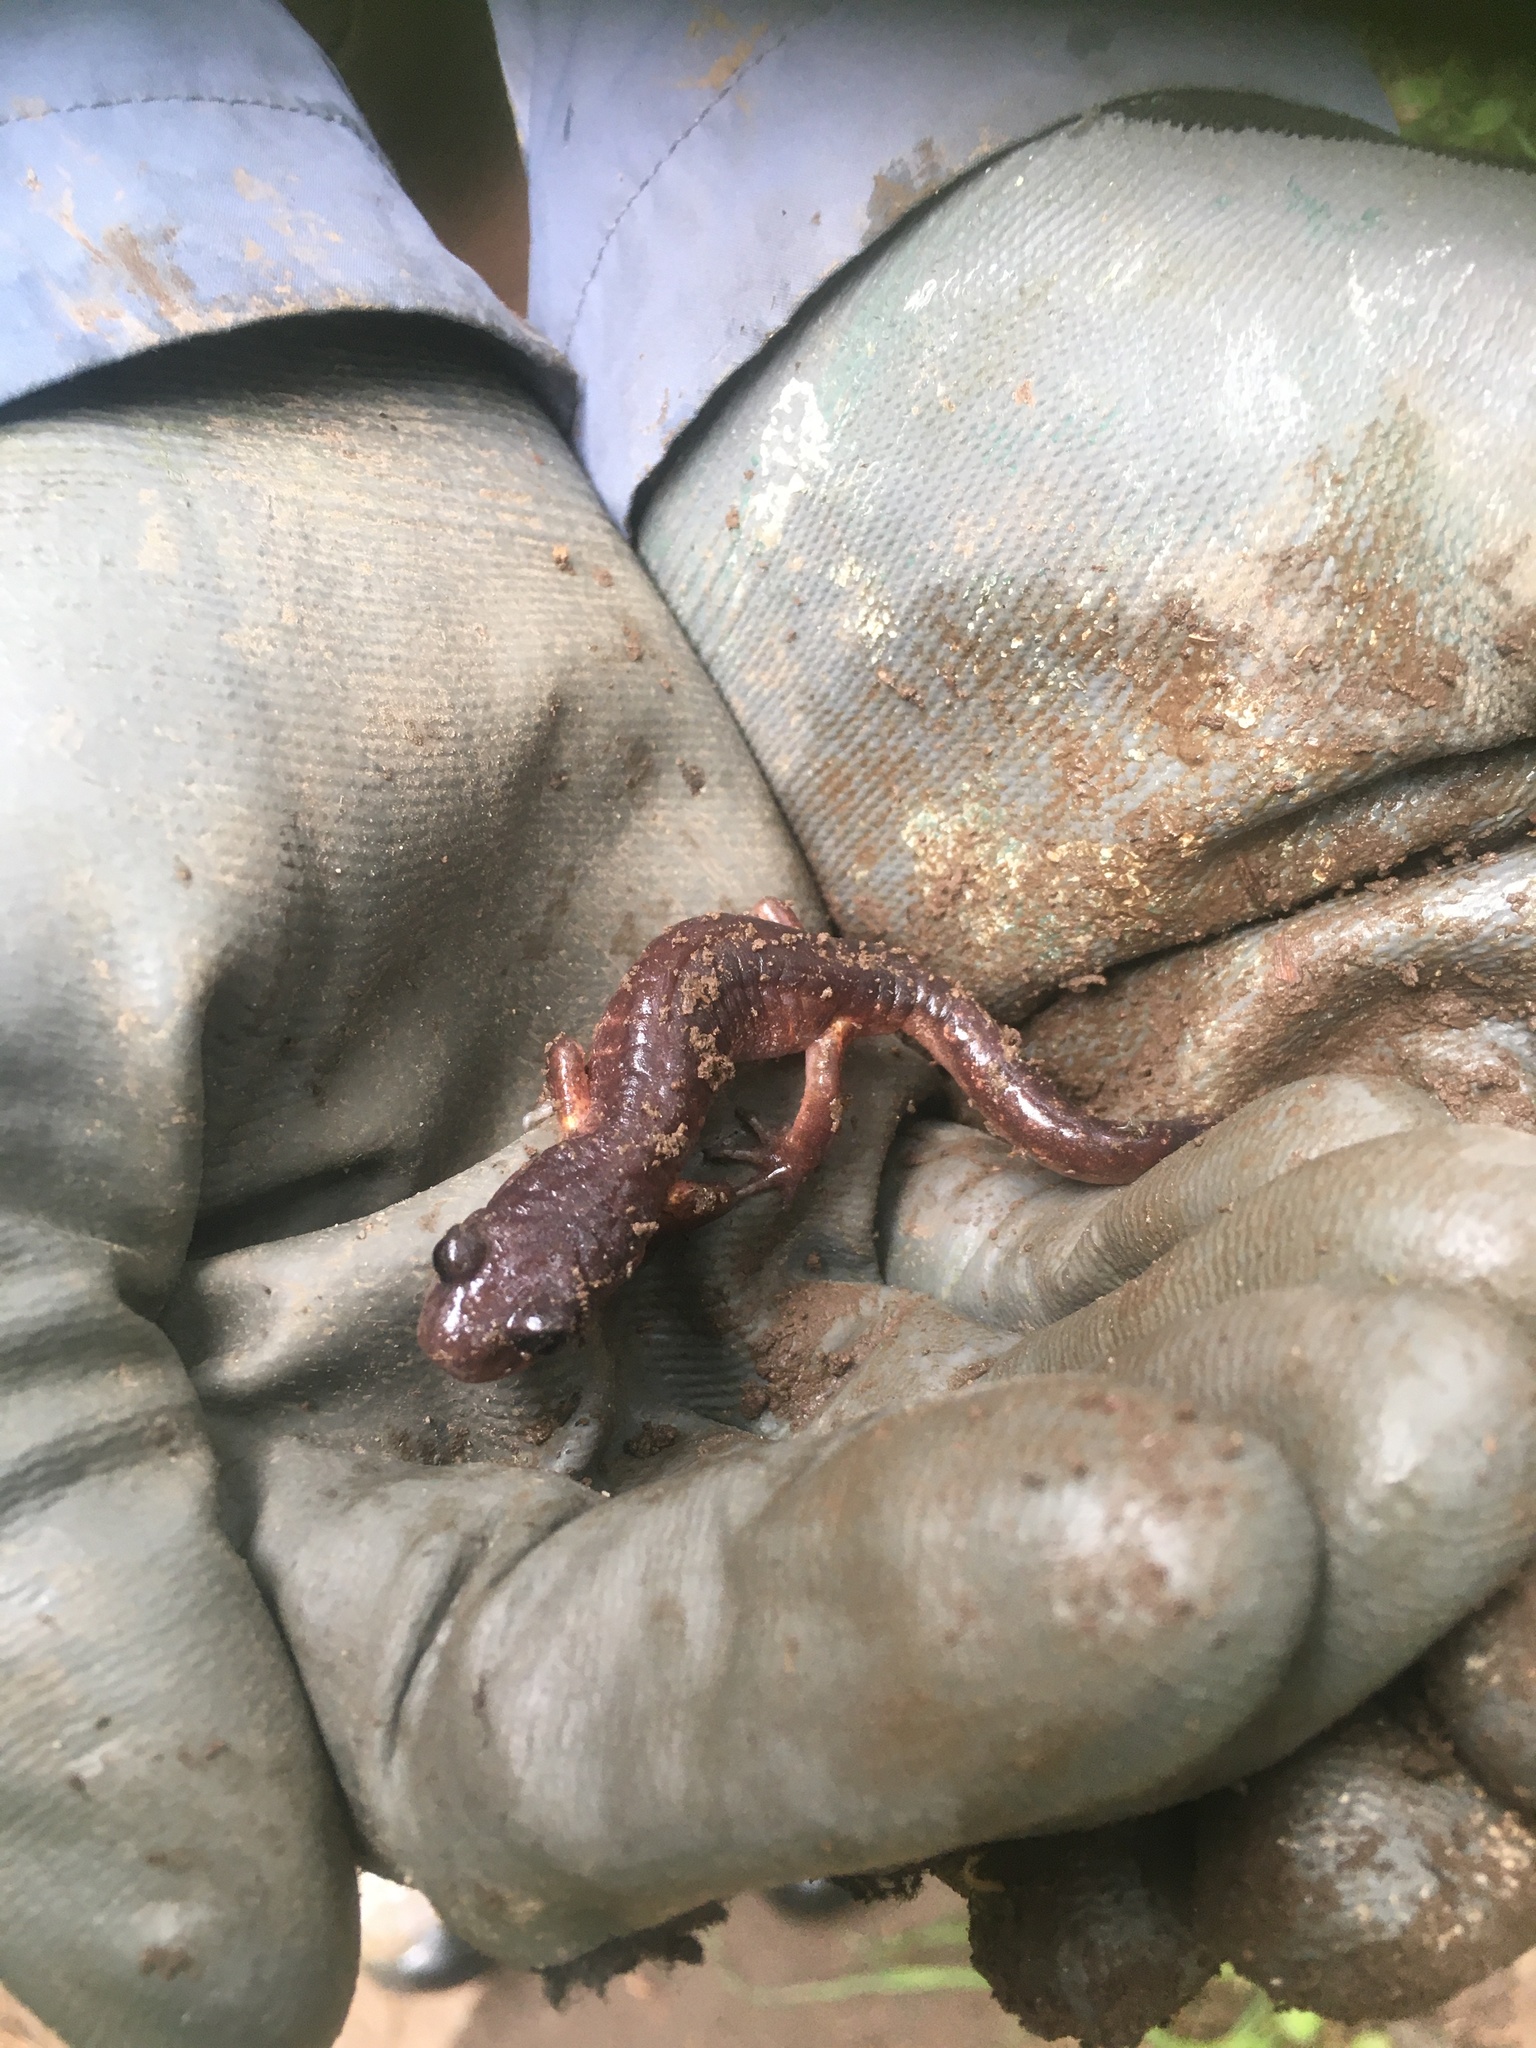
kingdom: Animalia
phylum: Chordata
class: Amphibia
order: Caudata
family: Plethodontidae
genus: Ensatina
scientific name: Ensatina eschscholtzii
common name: Ensatina
